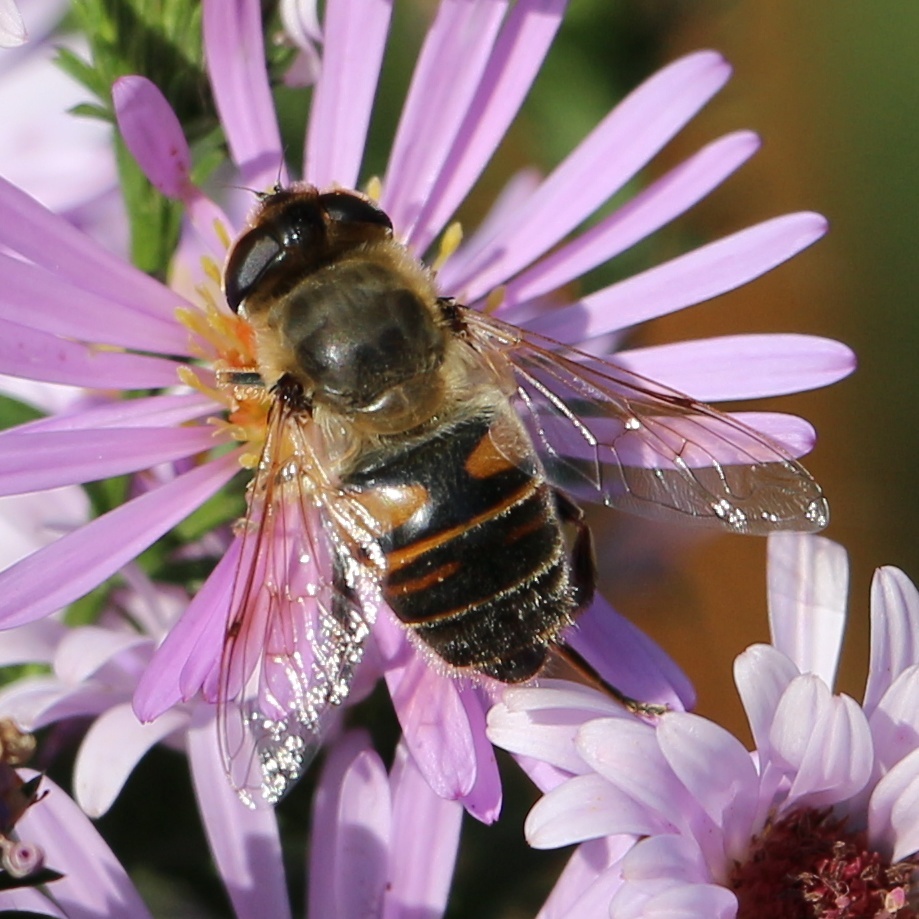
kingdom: Animalia
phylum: Arthropoda
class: Insecta
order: Diptera
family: Syrphidae
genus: Eristalis
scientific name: Eristalis tenax
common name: Drone fly
